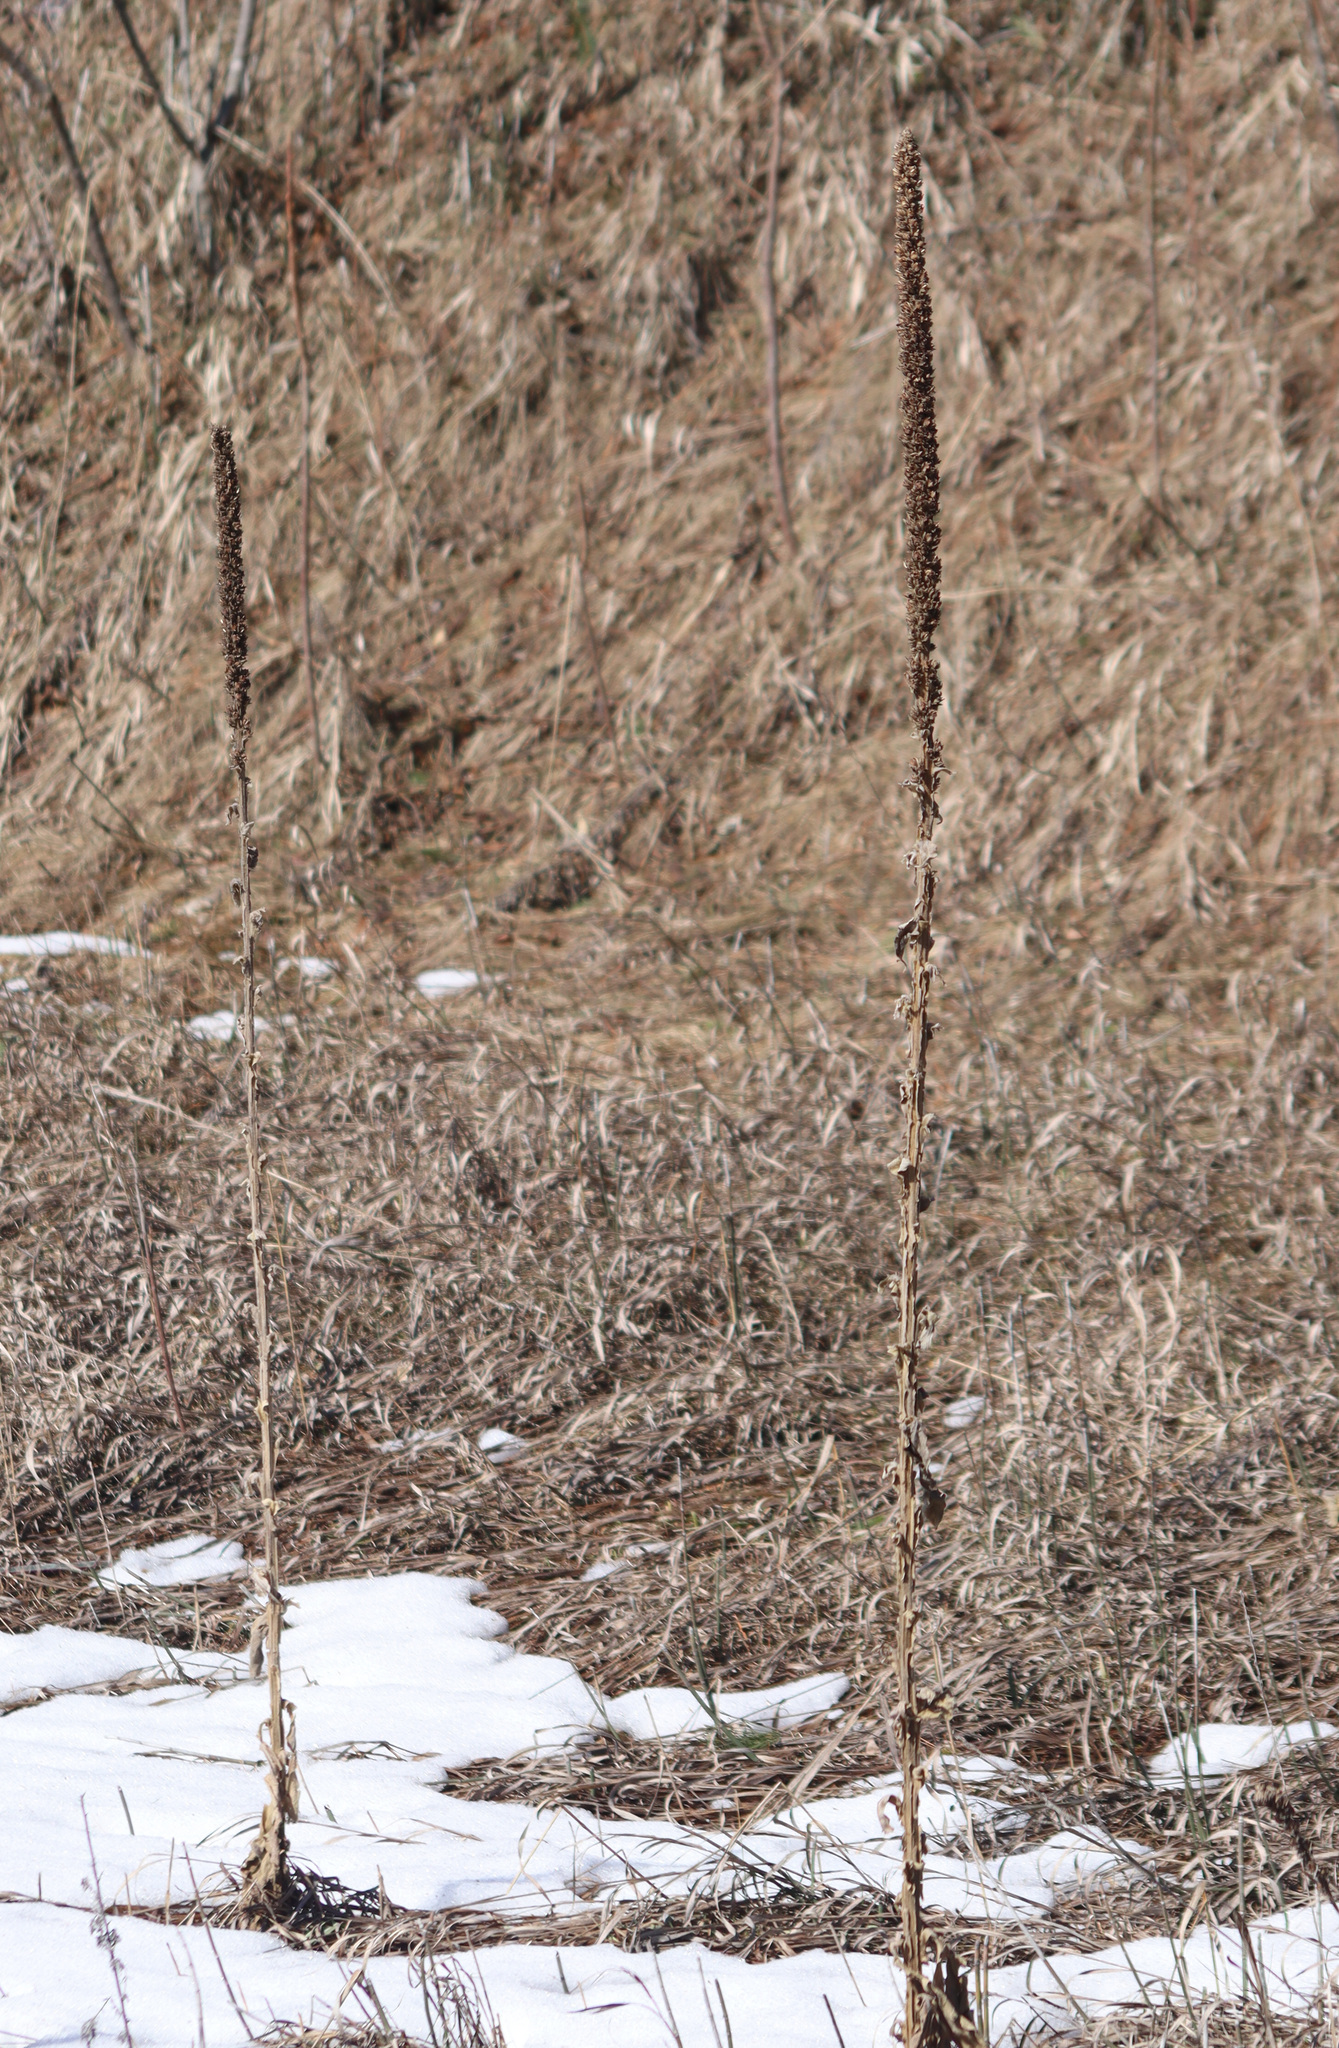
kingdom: Plantae
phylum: Tracheophyta
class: Magnoliopsida
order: Lamiales
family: Scrophulariaceae
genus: Verbascum
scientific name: Verbascum thapsus
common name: Common mullein
